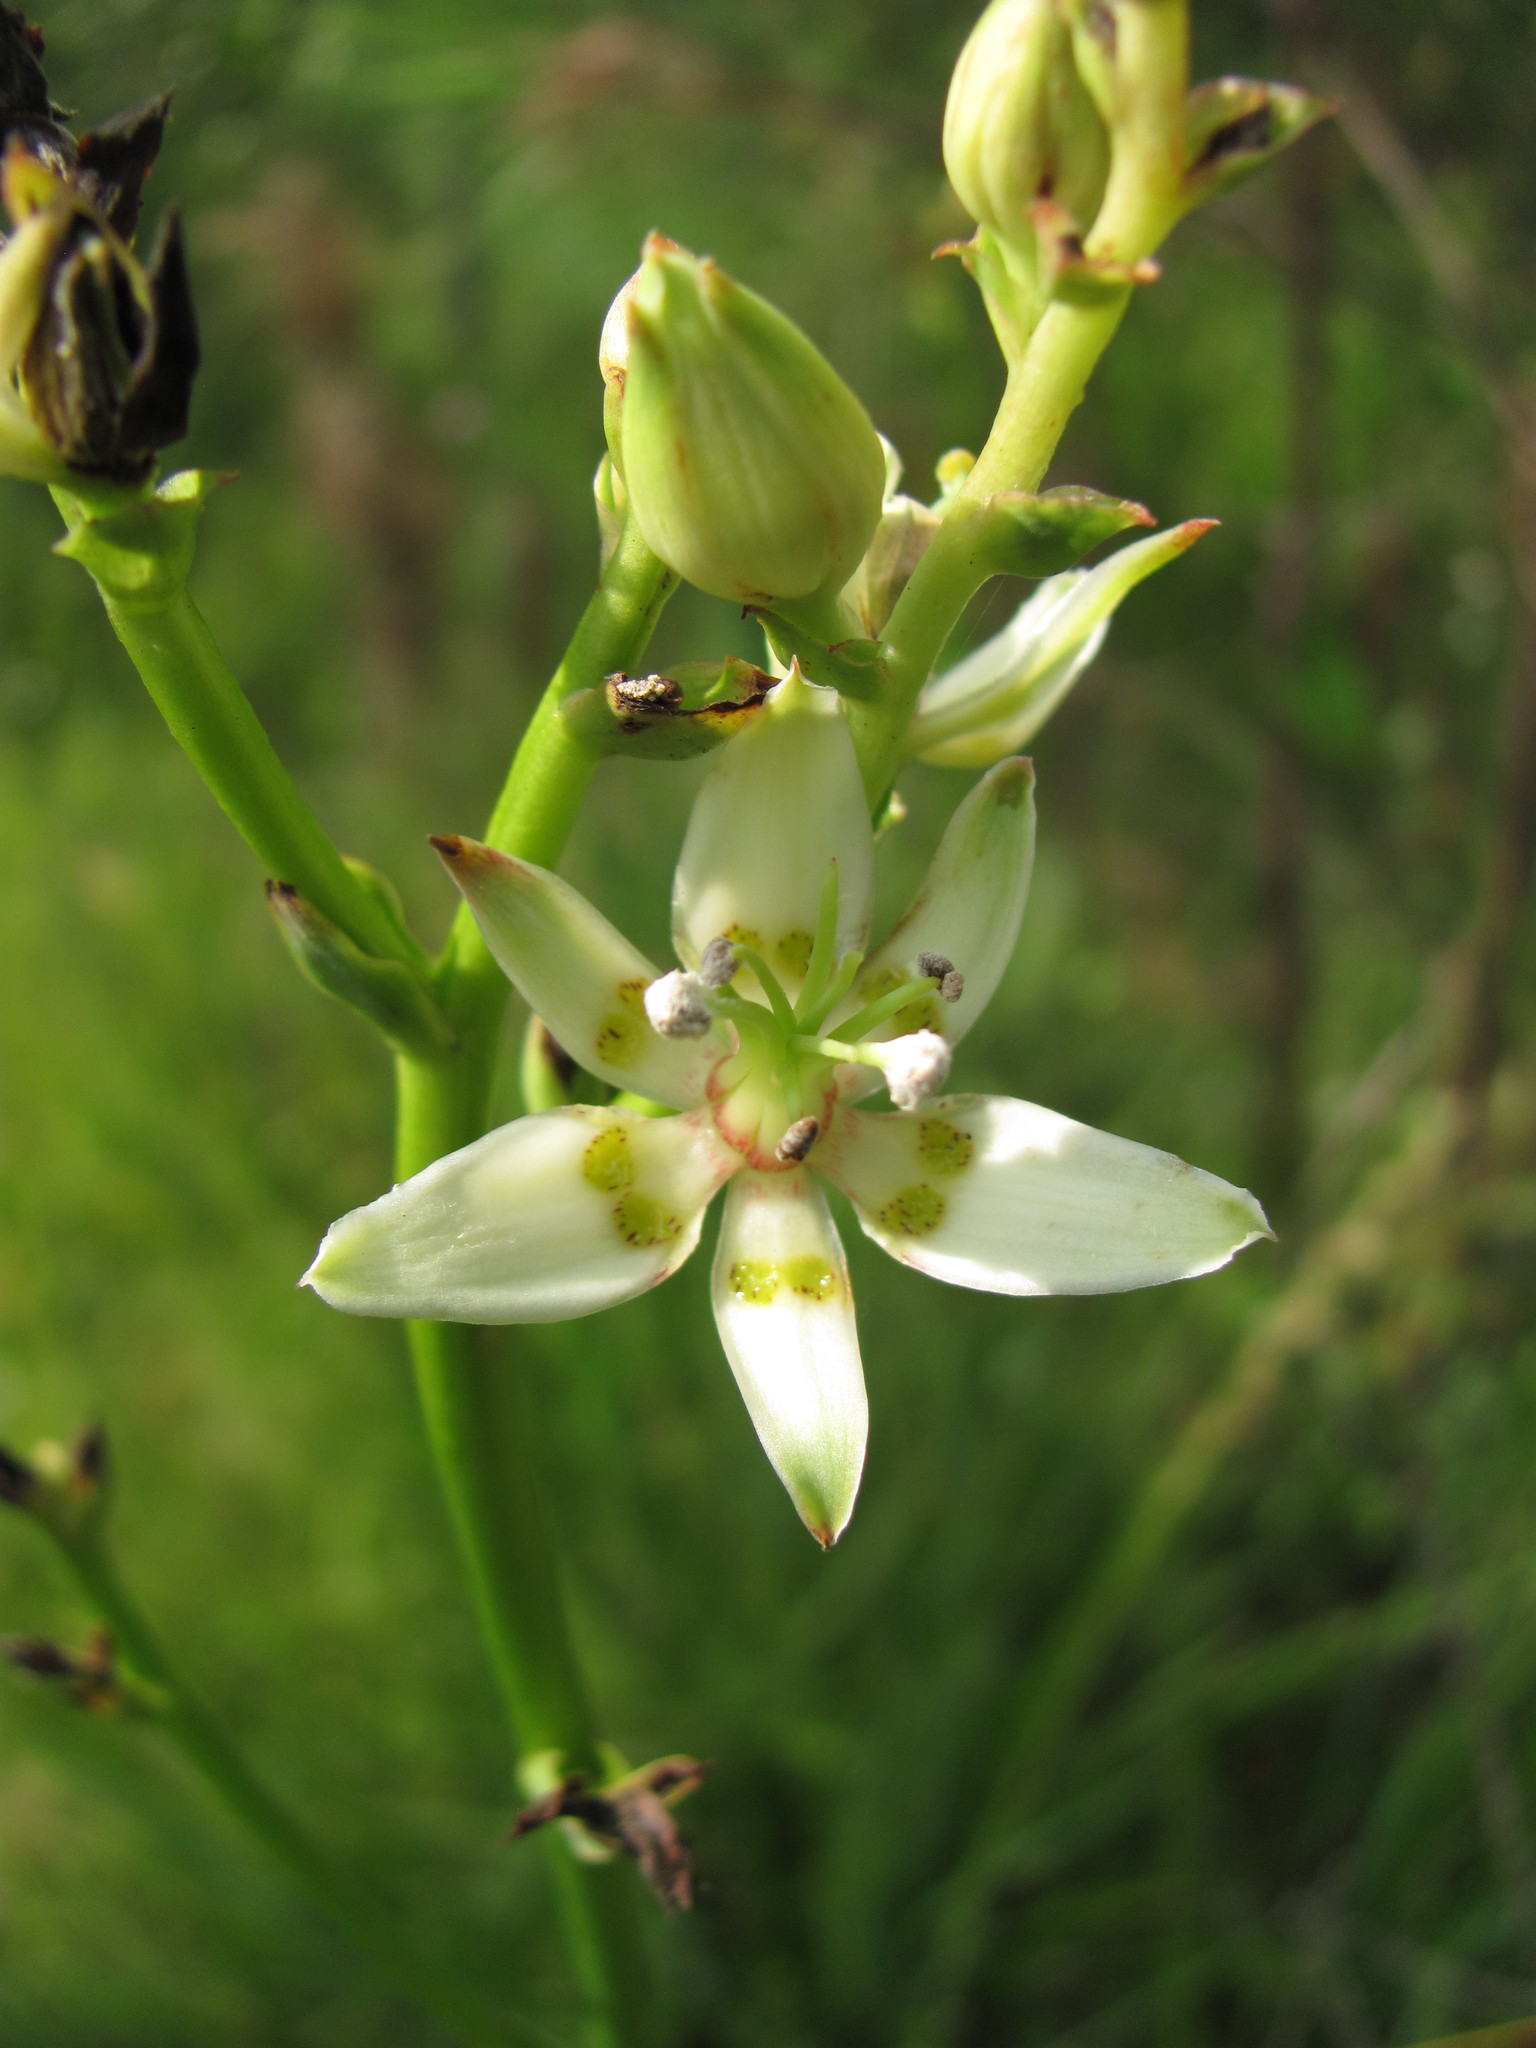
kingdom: Plantae
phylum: Tracheophyta
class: Liliopsida
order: Liliales
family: Melanthiaceae
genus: Zigadenus
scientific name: Zigadenus glaberrimus
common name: Sandbog death camas
